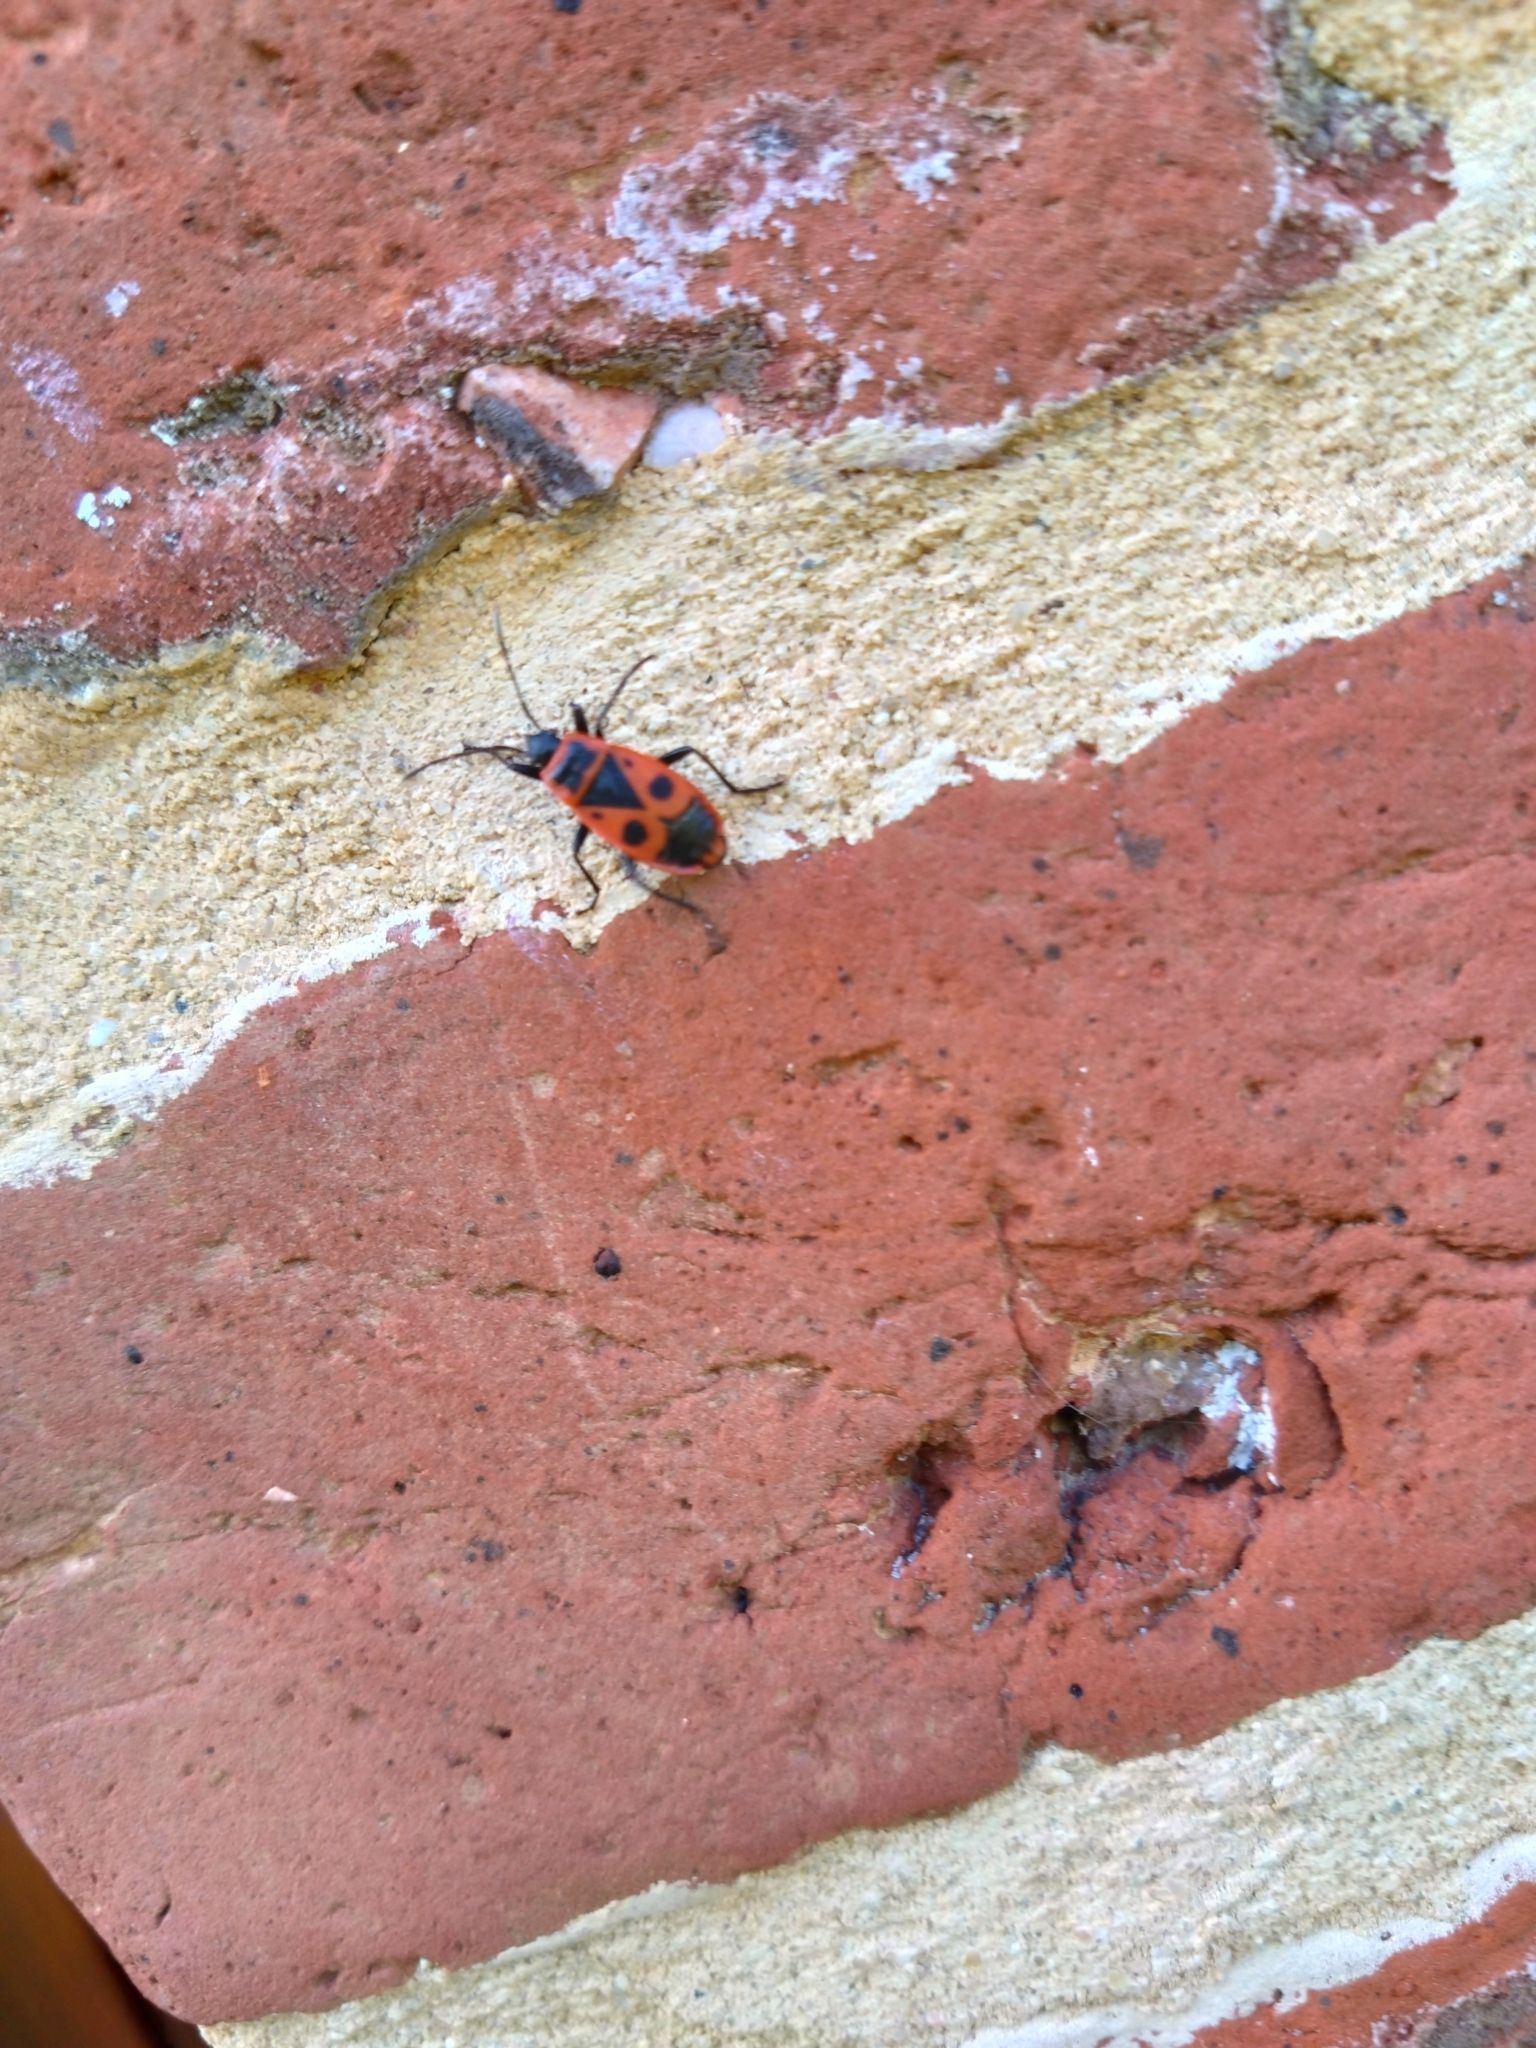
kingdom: Animalia
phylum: Arthropoda
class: Insecta
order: Hemiptera
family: Pyrrhocoridae
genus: Pyrrhocoris
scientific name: Pyrrhocoris apterus
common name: Firebug
